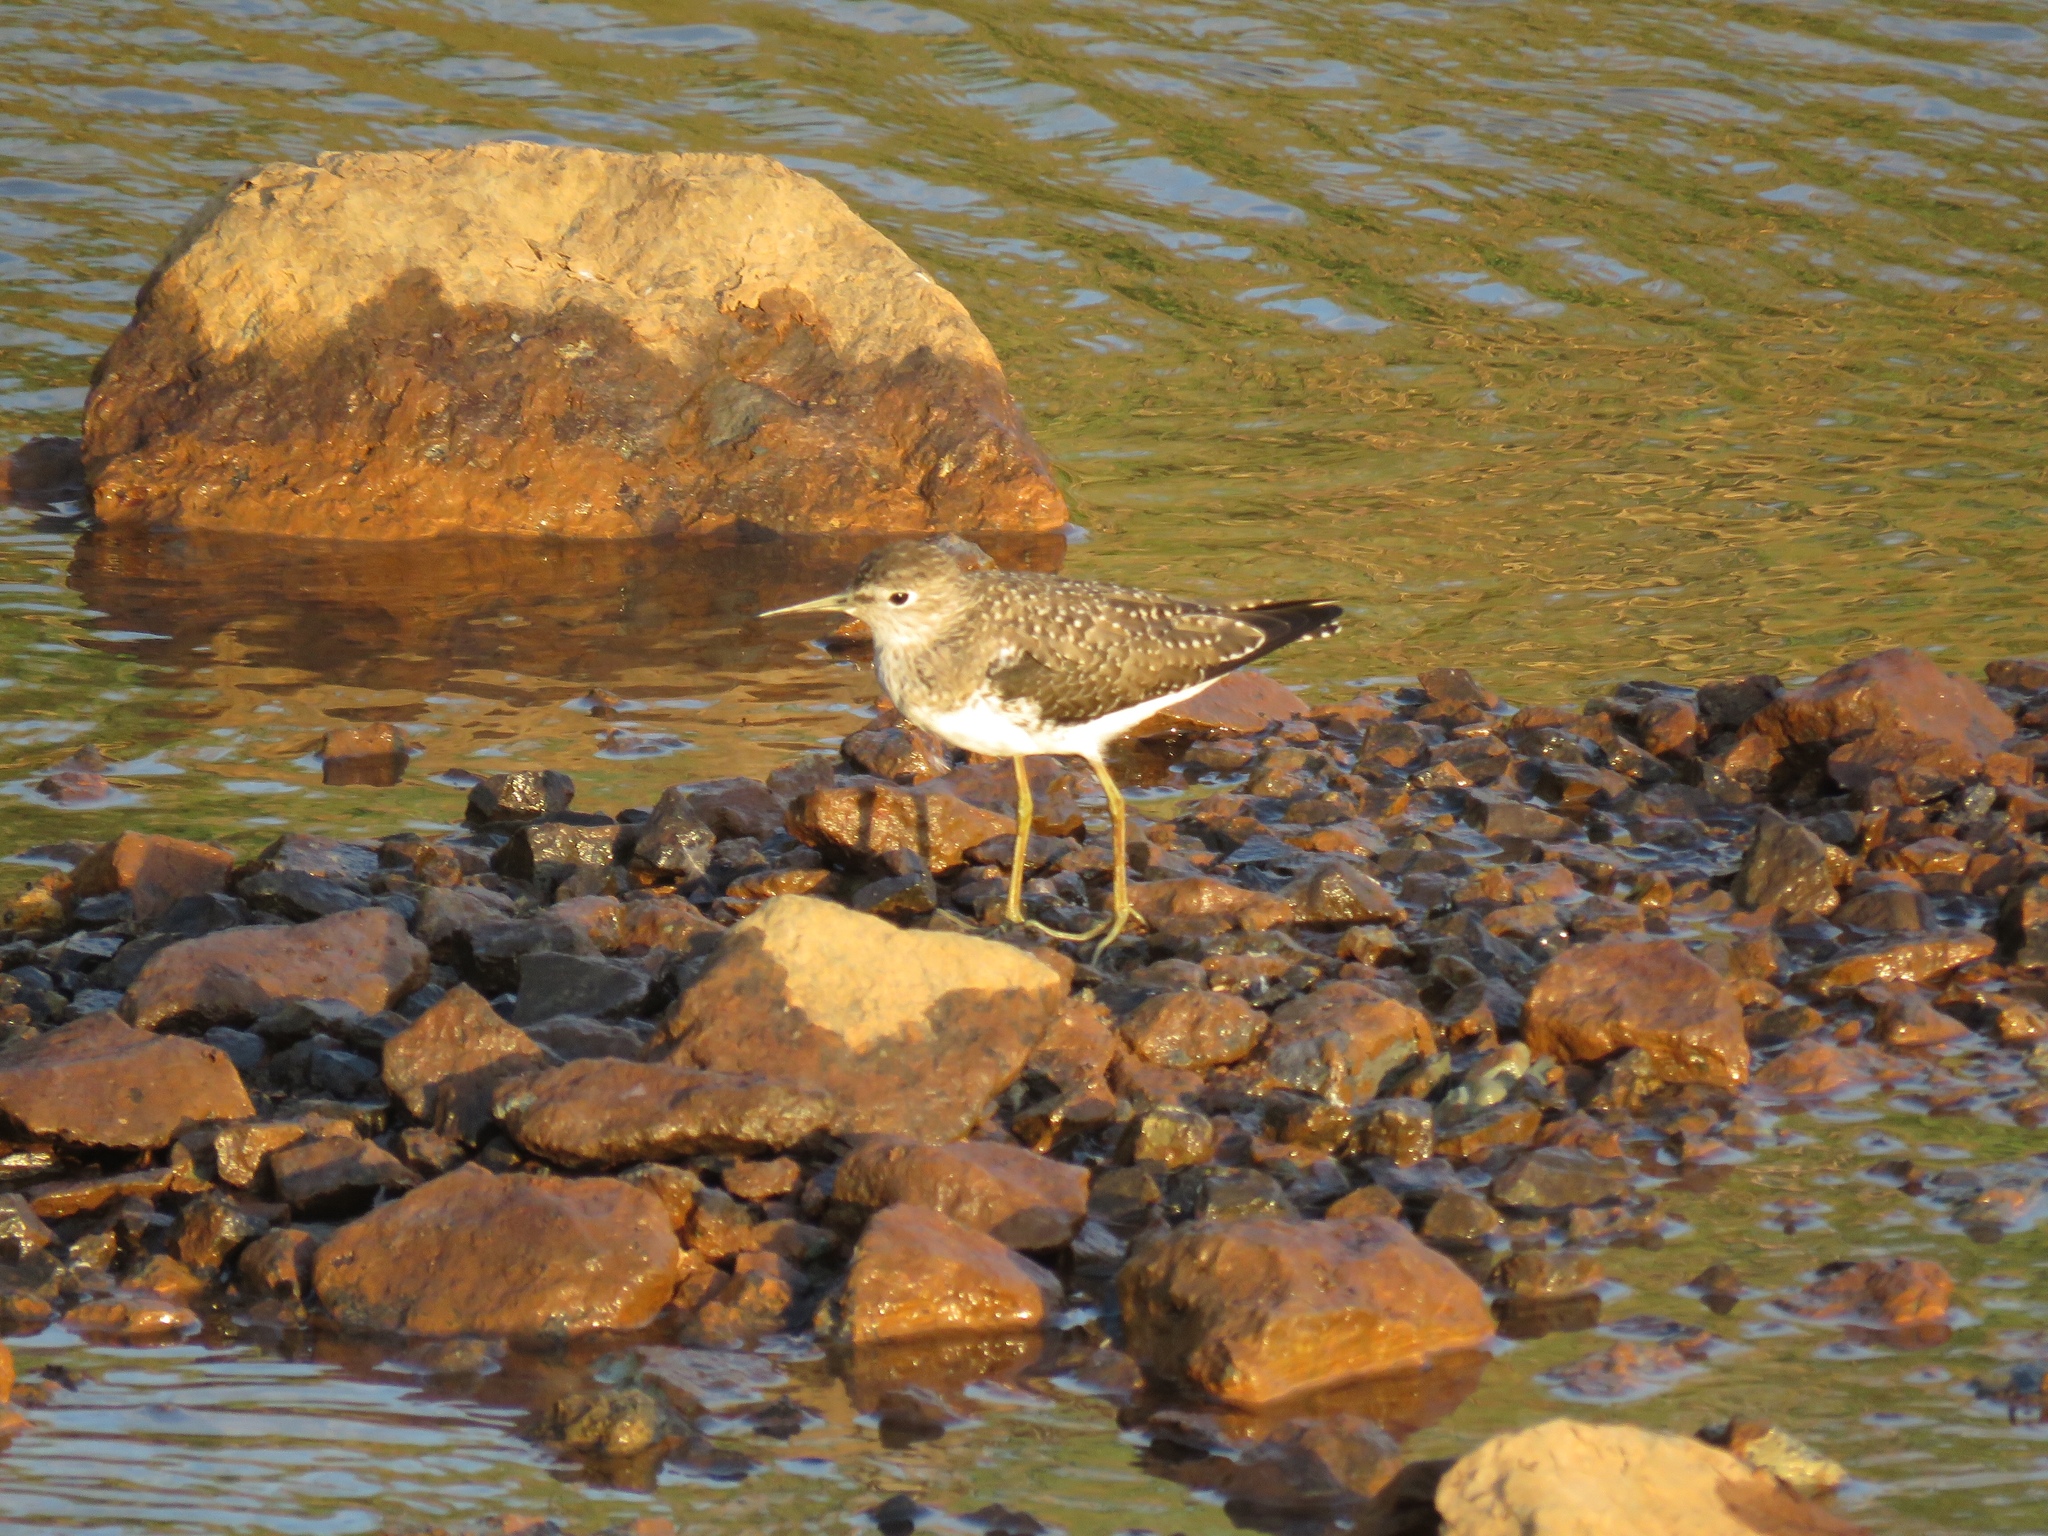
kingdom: Animalia
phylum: Chordata
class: Aves
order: Charadriiformes
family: Scolopacidae
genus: Tringa
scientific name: Tringa solitaria
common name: Solitary sandpiper
